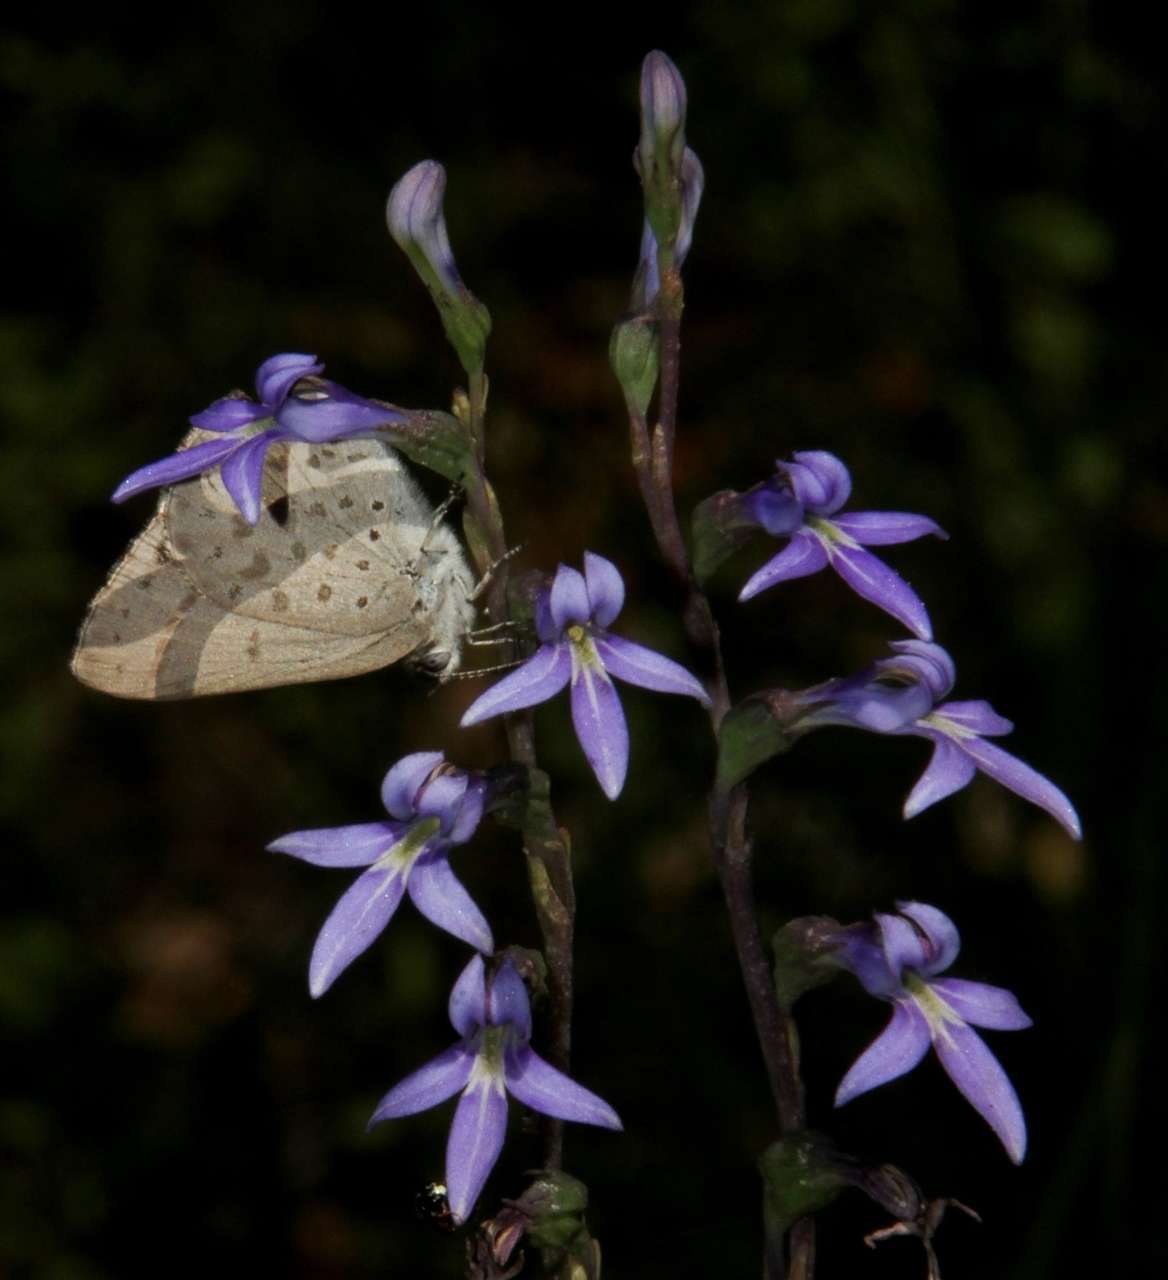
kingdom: Animalia
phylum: Arthropoda
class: Insecta
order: Lepidoptera
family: Lycaenidae
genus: Candalides
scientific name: Candalides
